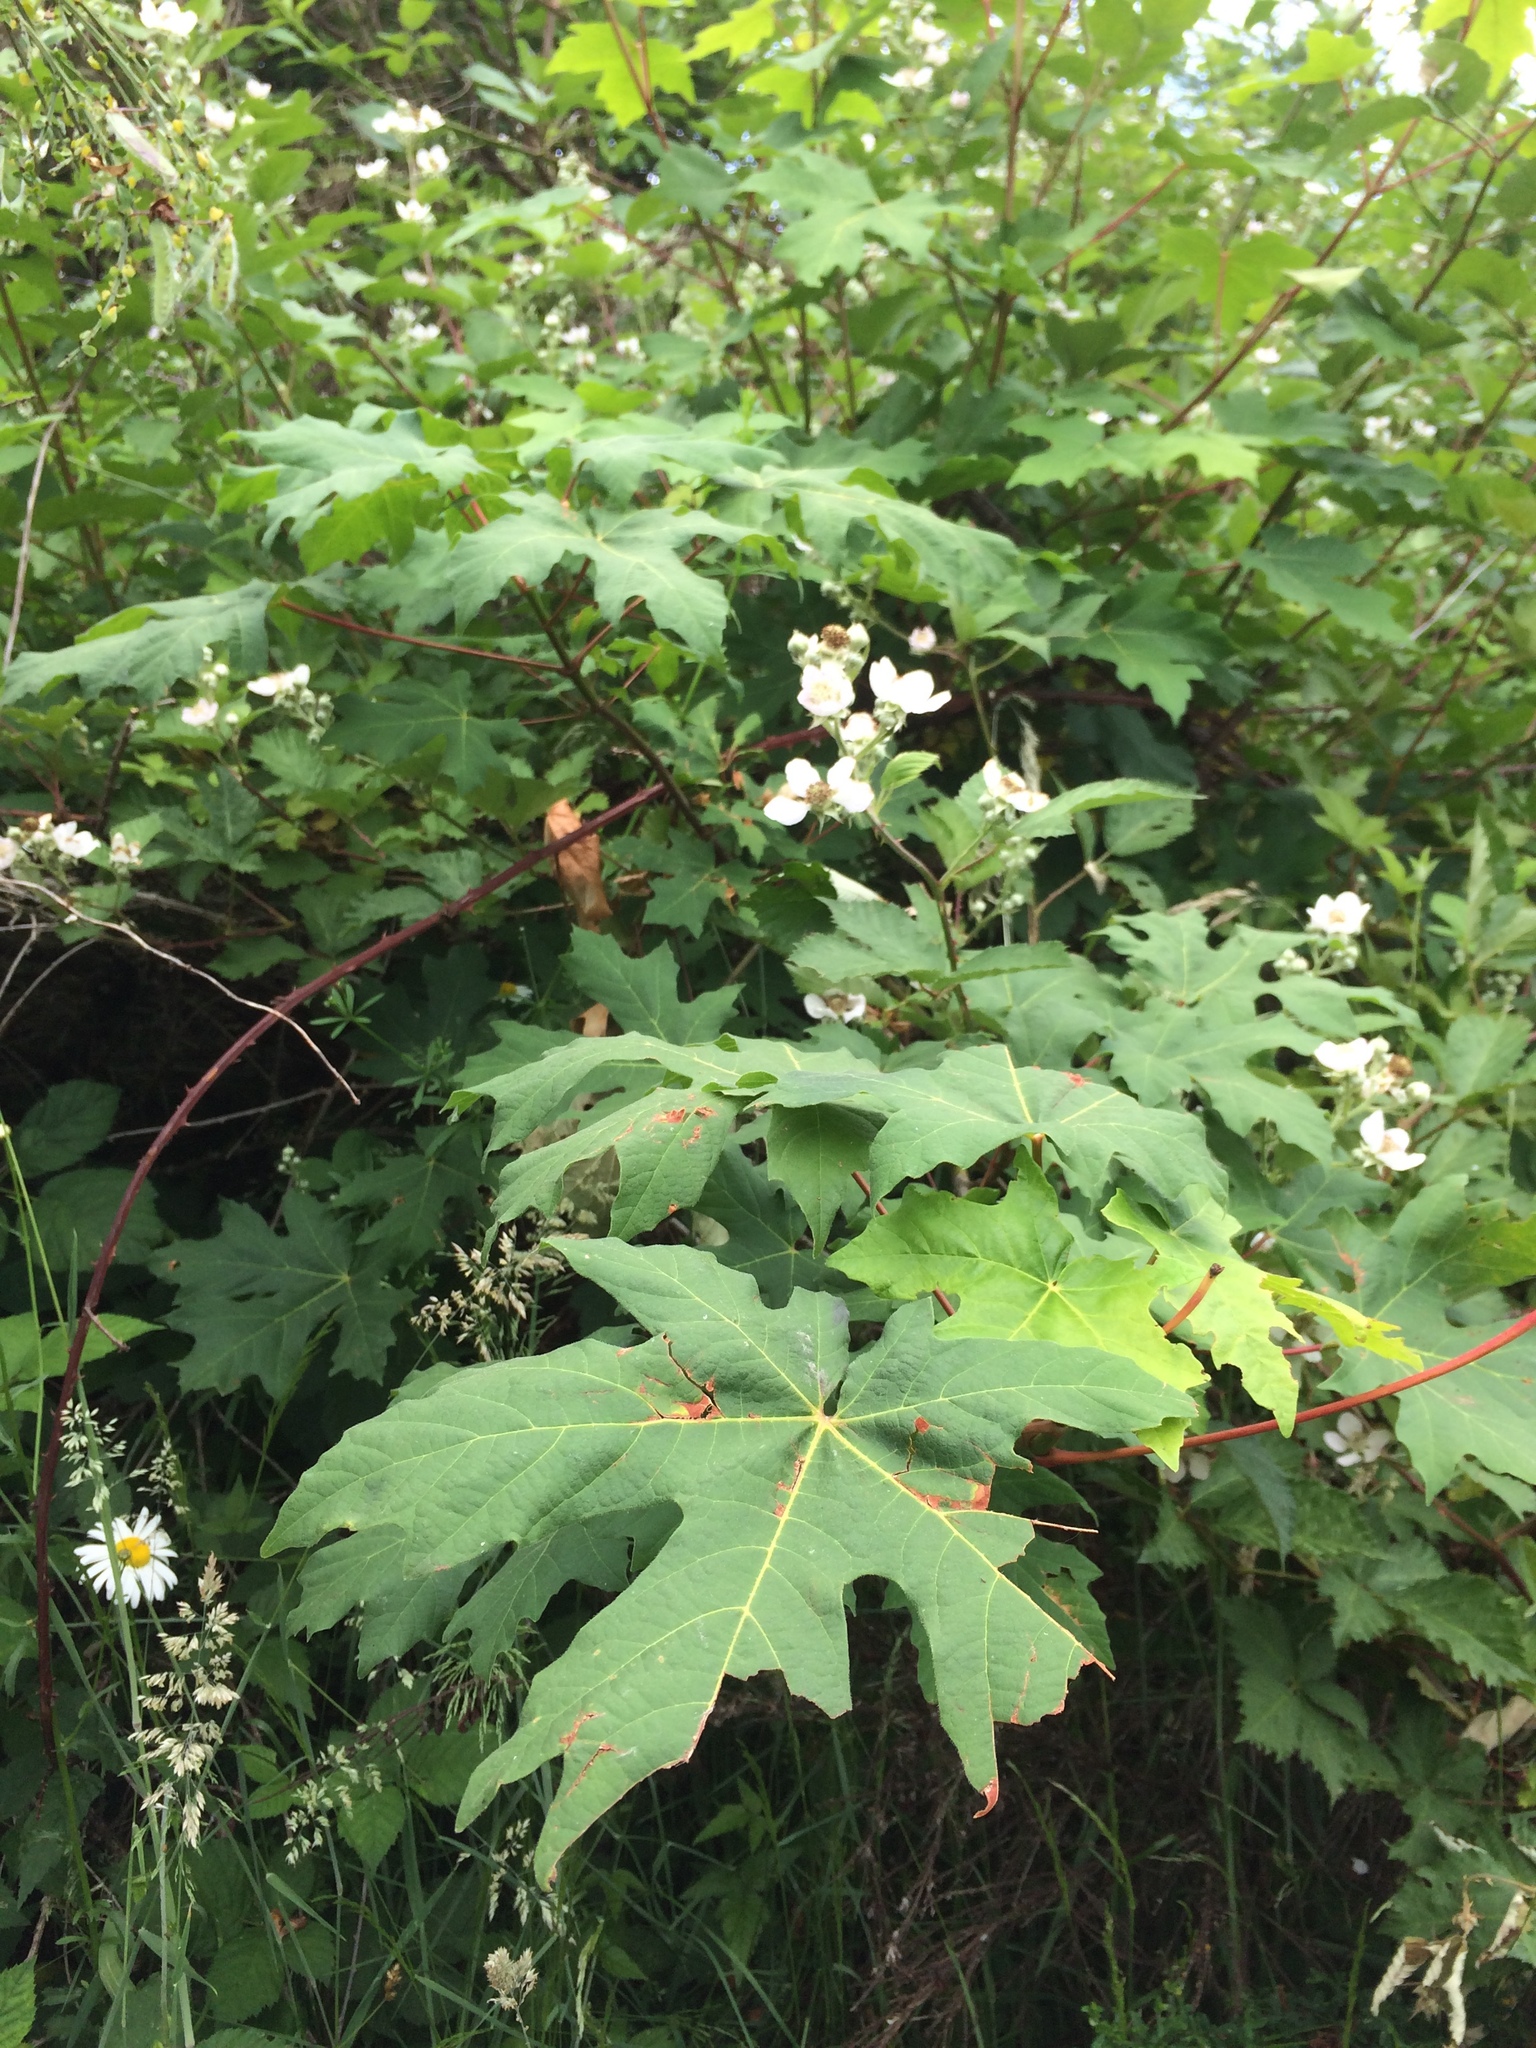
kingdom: Plantae
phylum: Tracheophyta
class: Magnoliopsida
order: Sapindales
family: Sapindaceae
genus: Acer
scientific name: Acer macrophyllum
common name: Oregon maple
